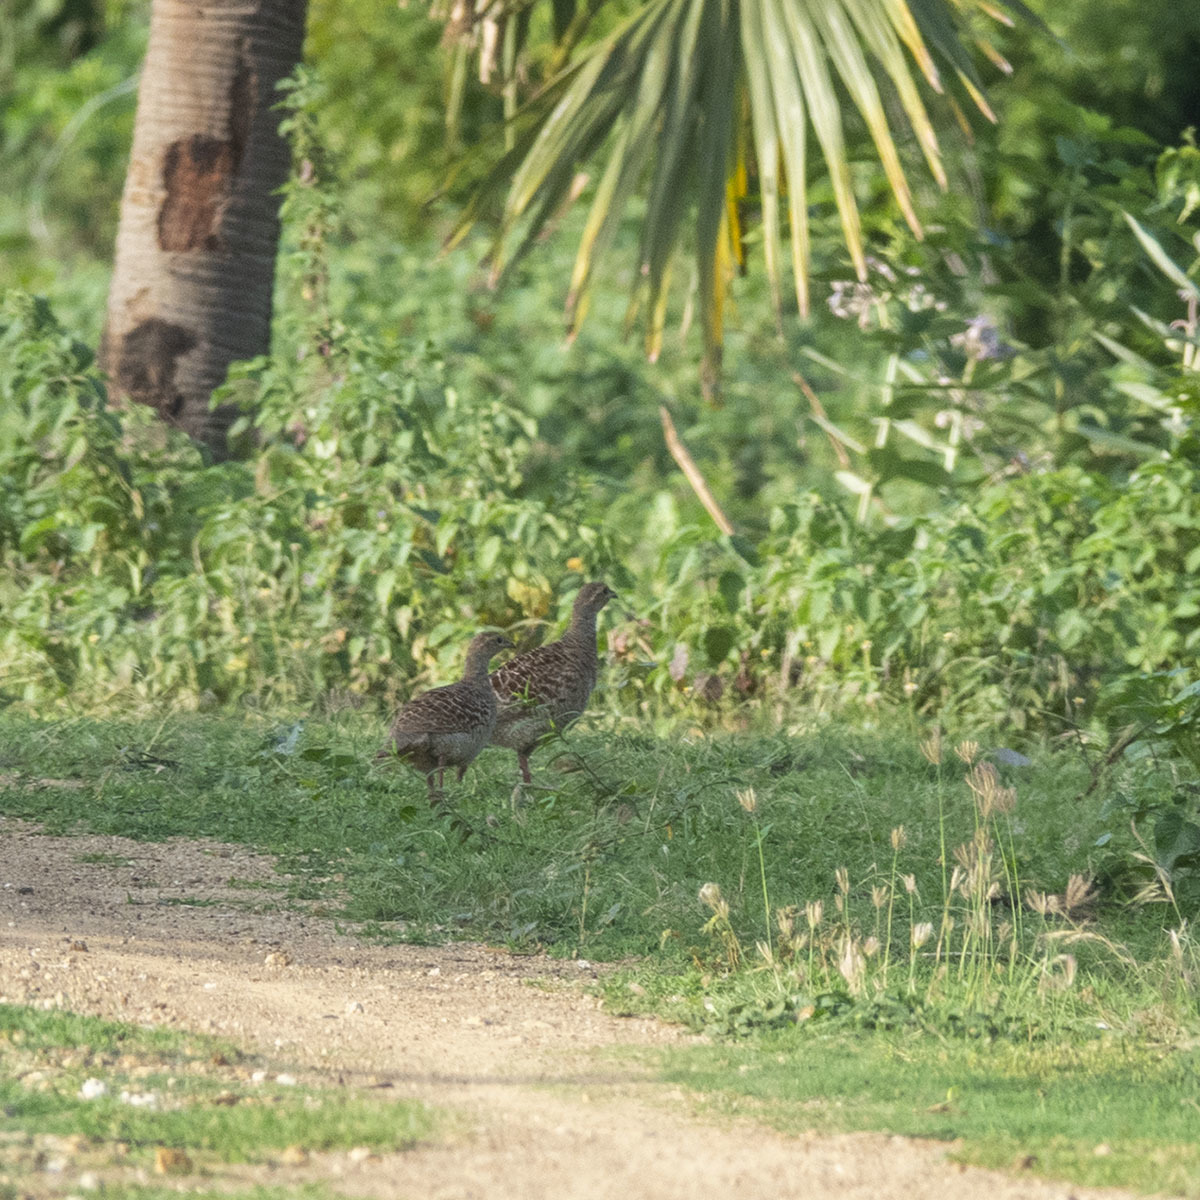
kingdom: Animalia
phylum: Chordata
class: Aves
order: Galliformes
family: Phasianidae
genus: Ortygornis
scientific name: Ortygornis pondicerianus
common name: Grey francolin
